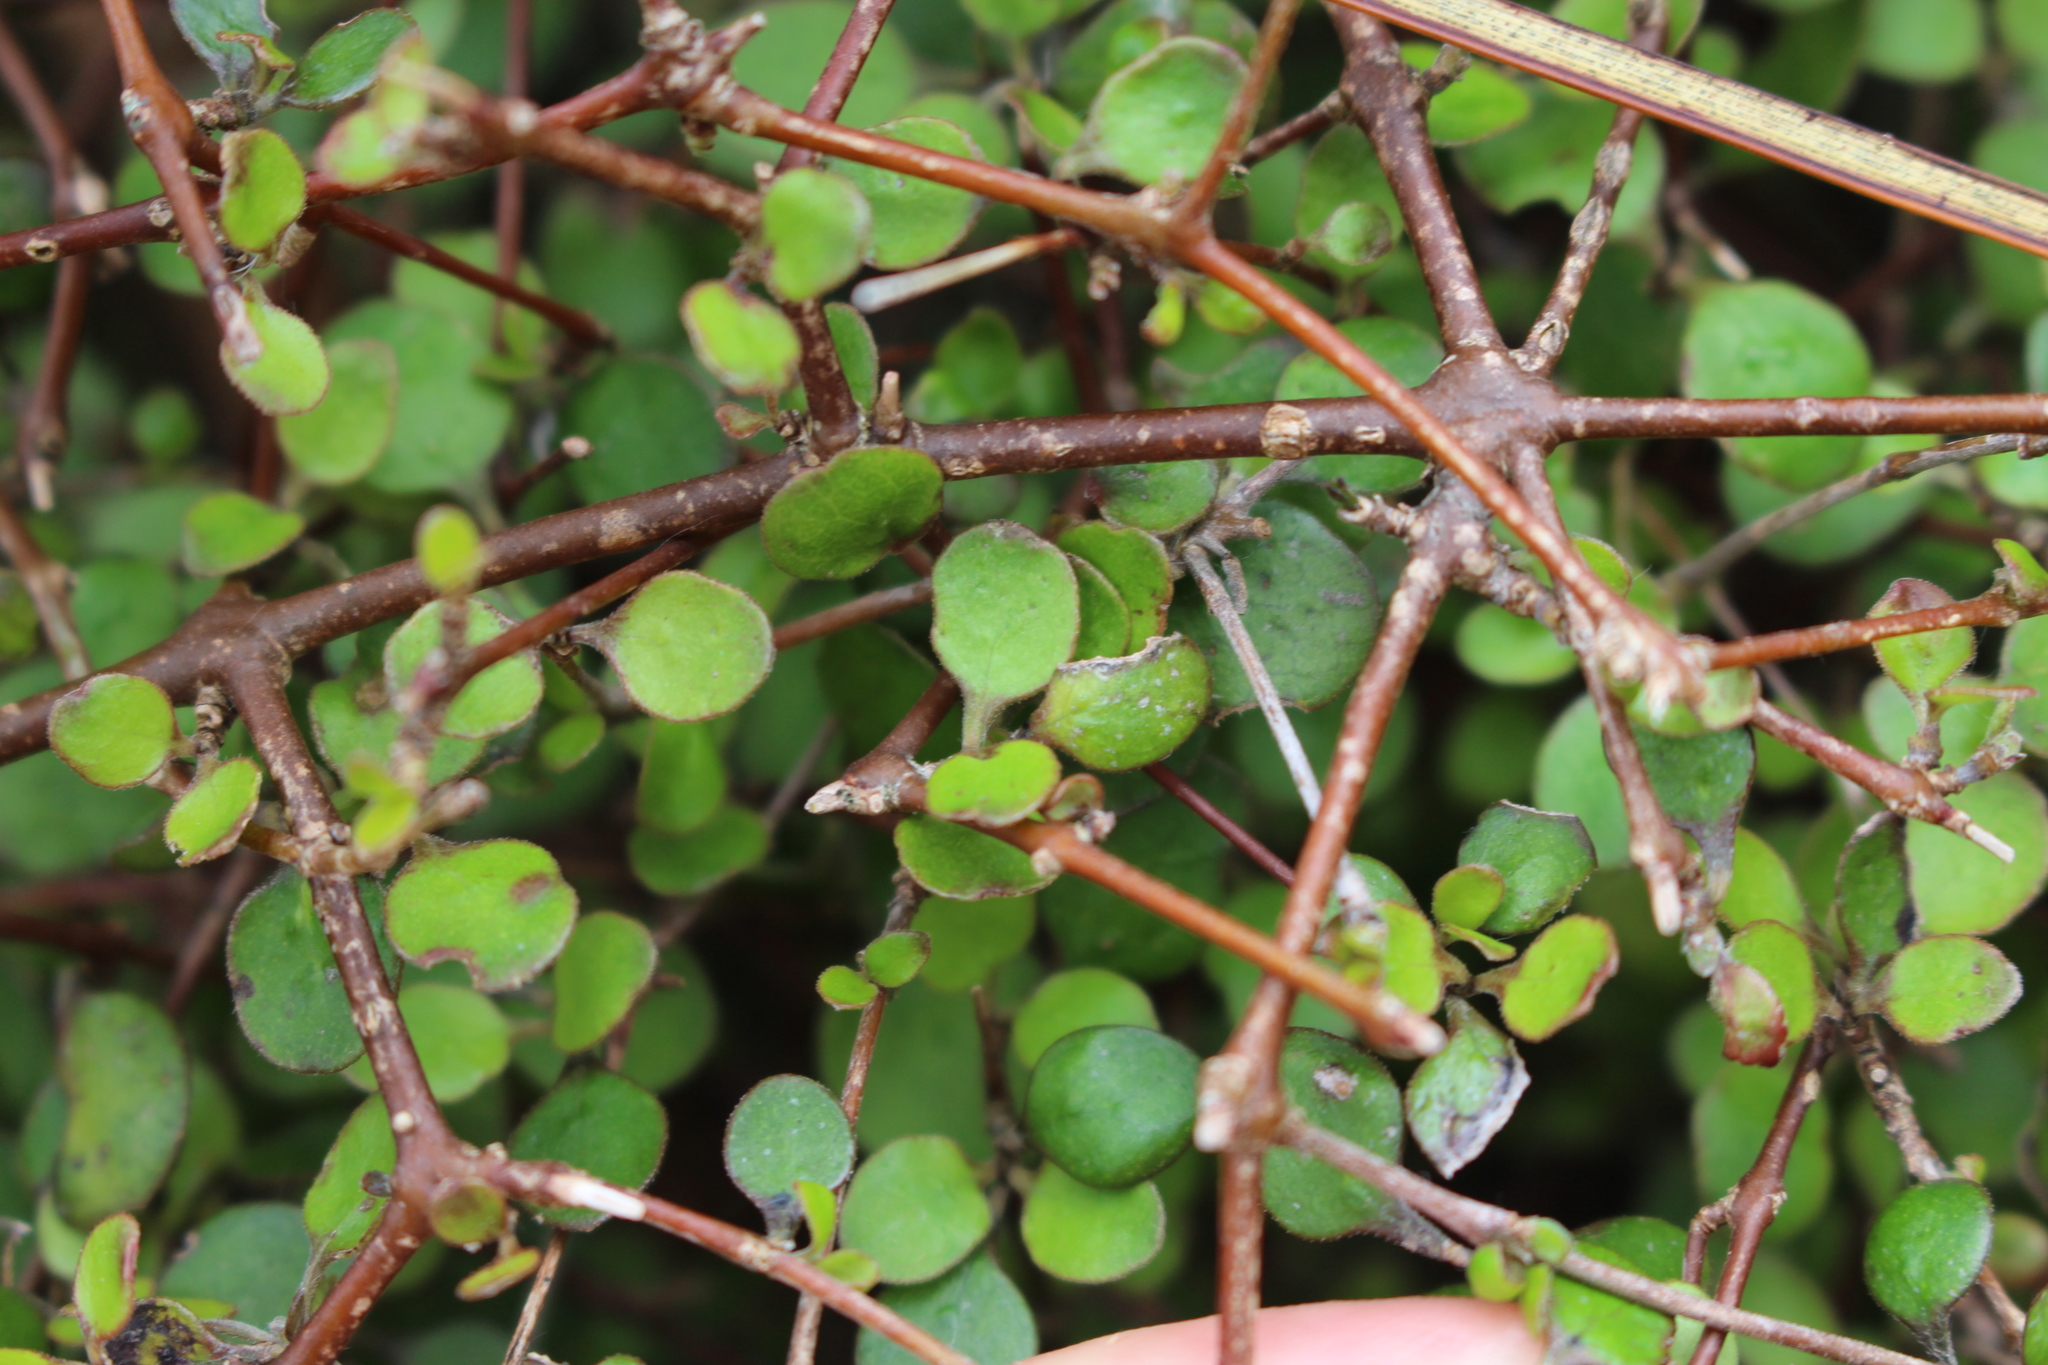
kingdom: Plantae
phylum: Tracheophyta
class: Magnoliopsida
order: Gentianales
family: Rubiaceae
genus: Coprosma
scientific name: Coprosma crassifolia
